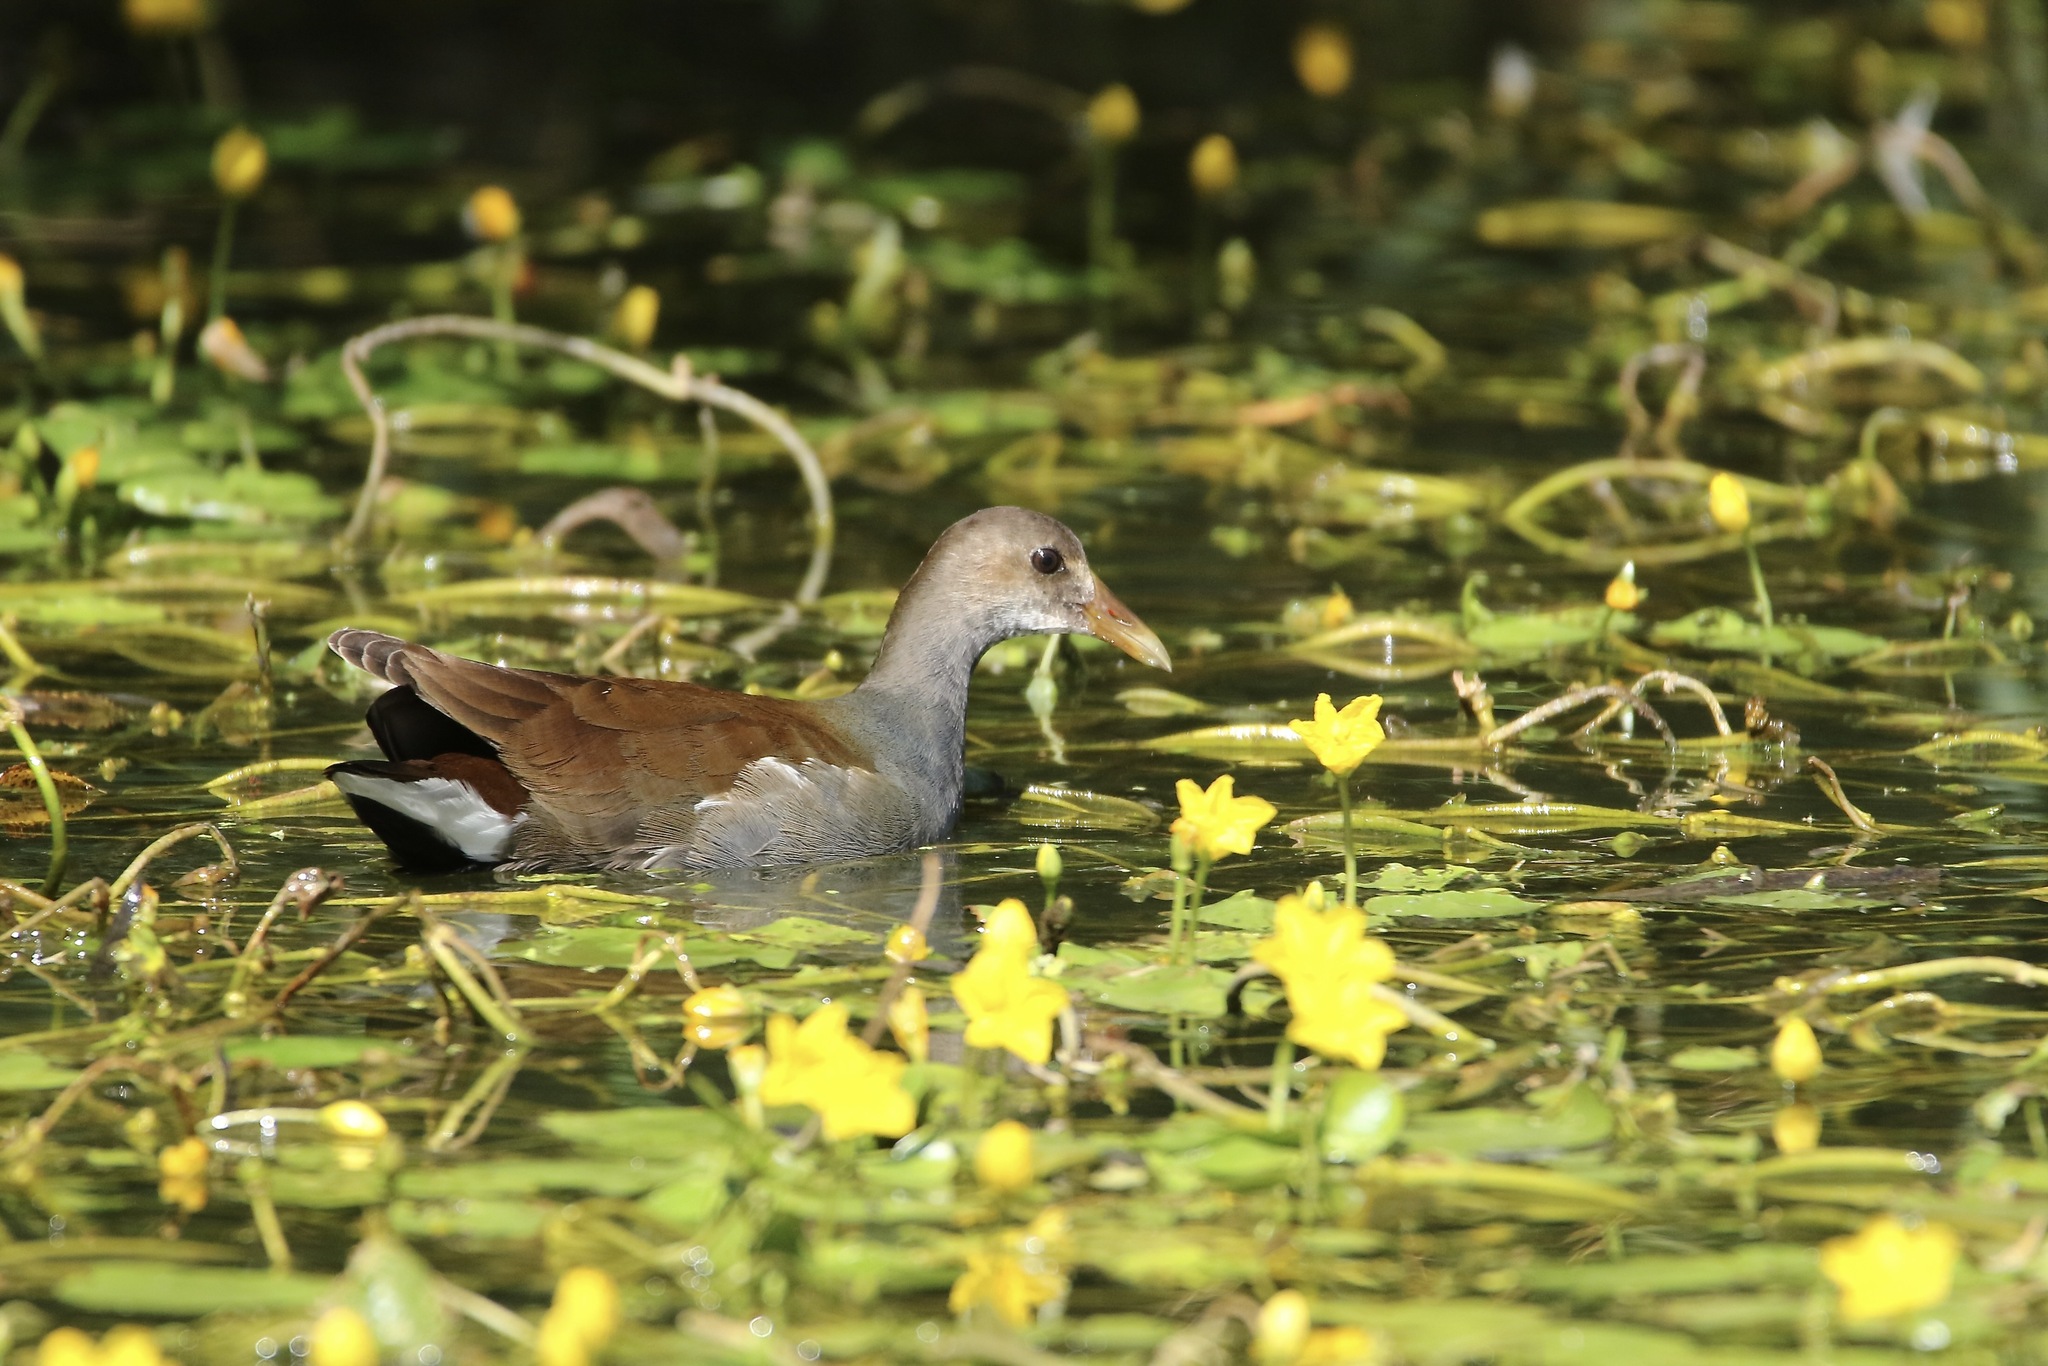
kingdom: Animalia
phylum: Chordata
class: Aves
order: Gruiformes
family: Rallidae
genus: Gallinula
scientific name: Gallinula chloropus
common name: Common moorhen
